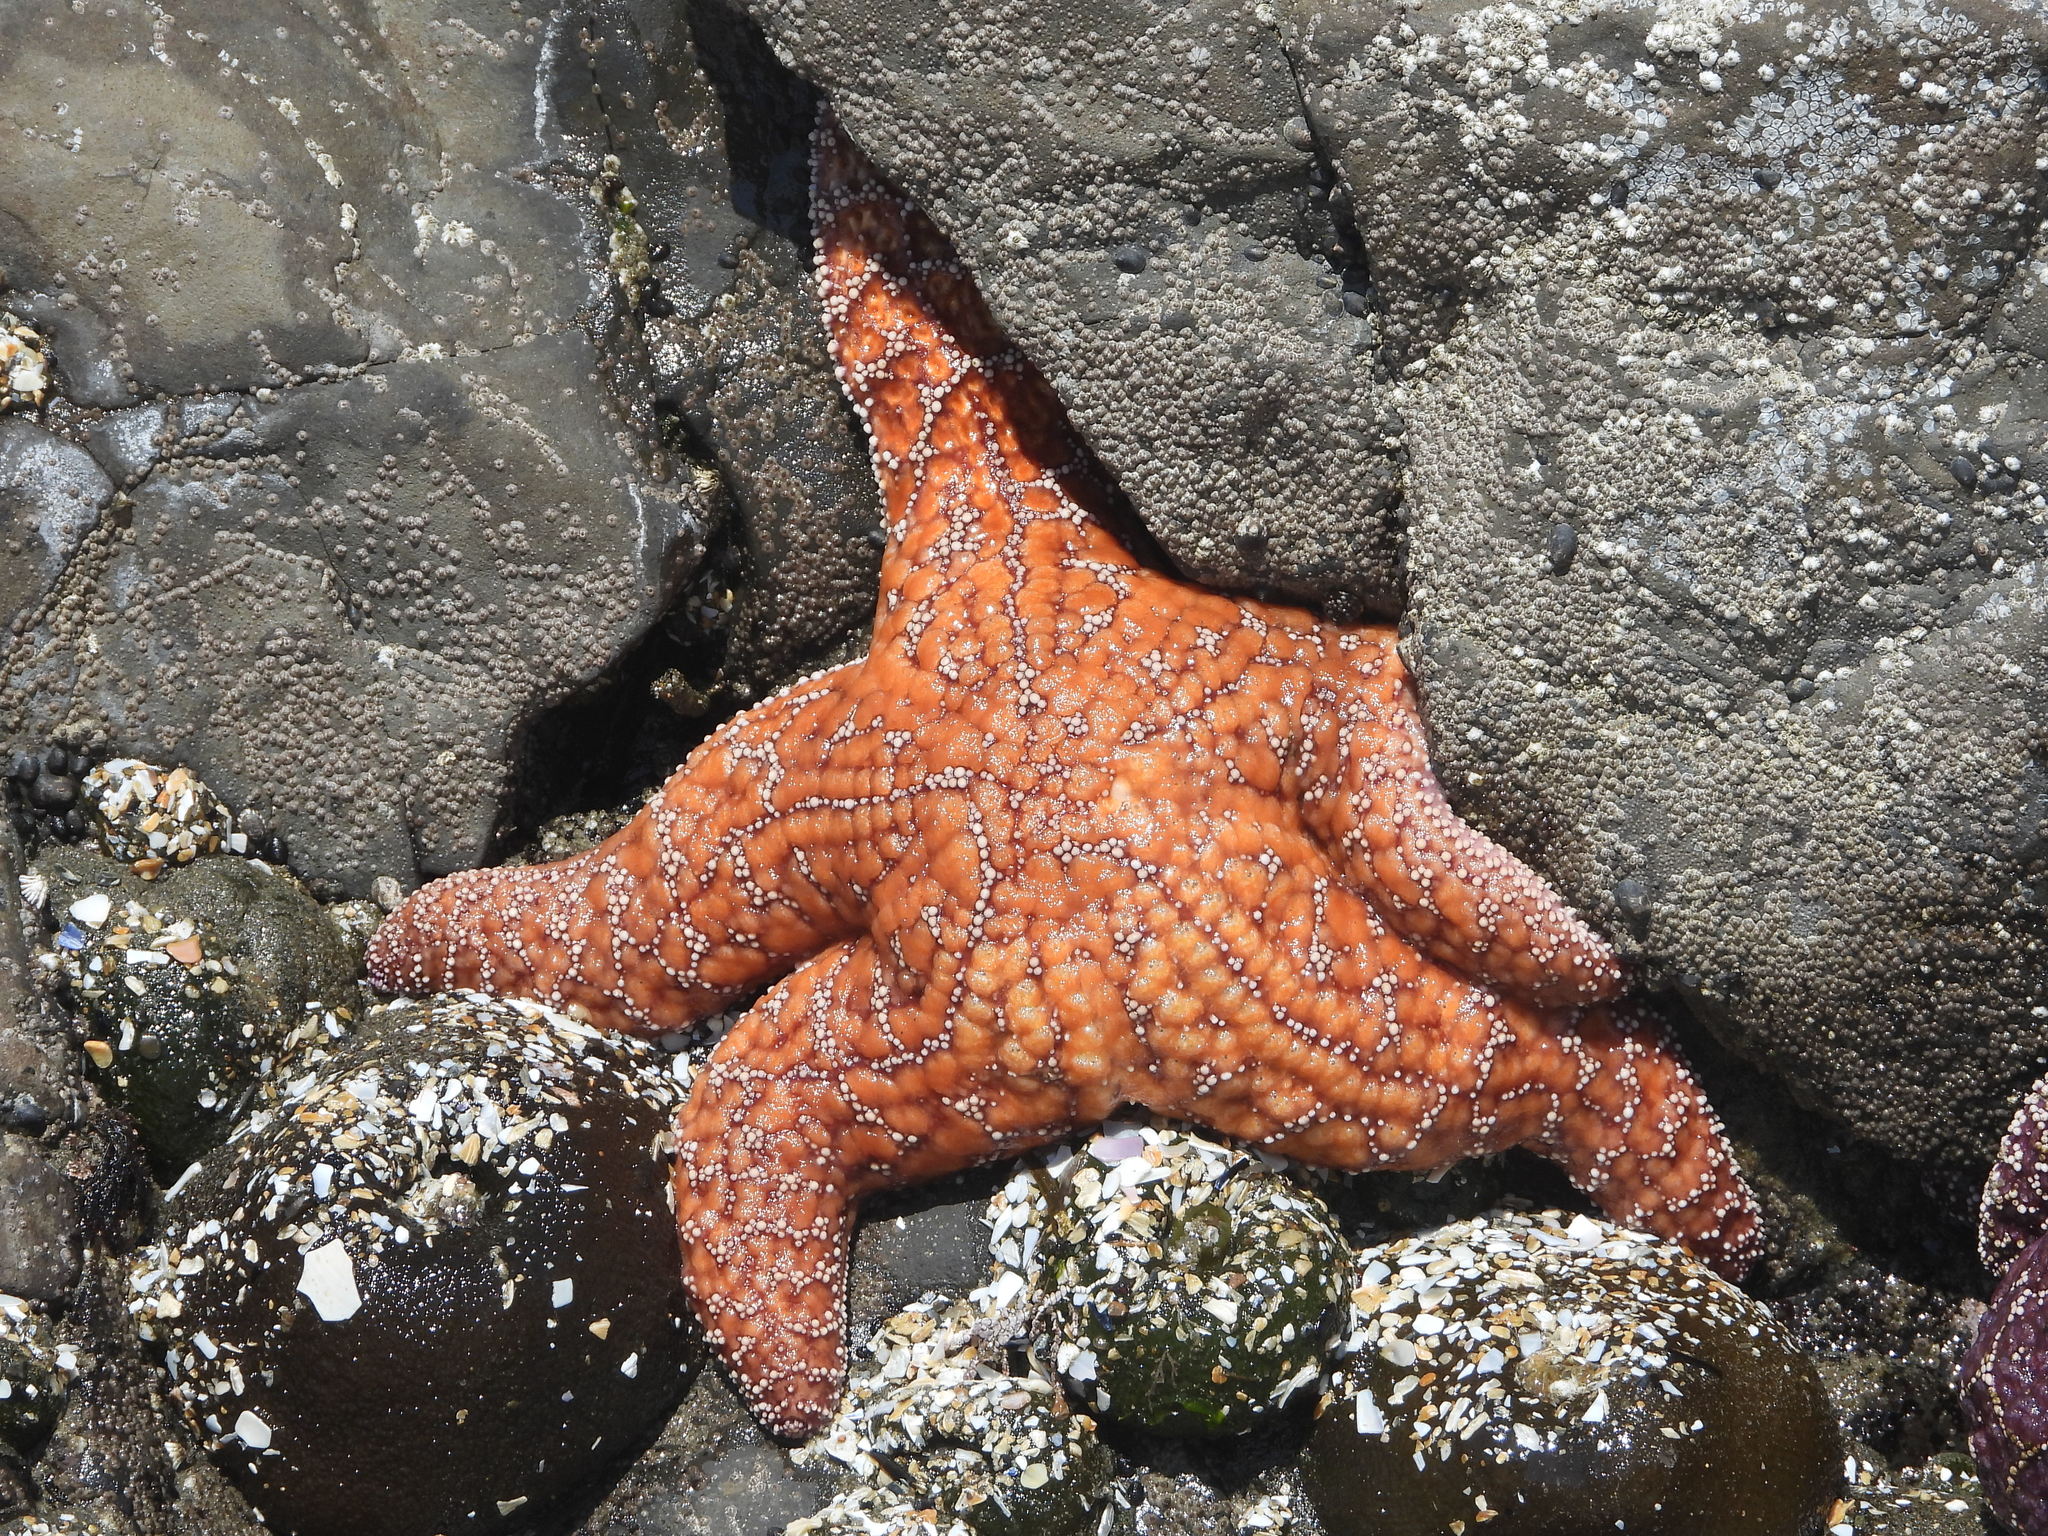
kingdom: Animalia
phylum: Echinodermata
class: Asteroidea
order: Forcipulatida
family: Asteriidae
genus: Pisaster
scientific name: Pisaster ochraceus
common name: Ochre stars
